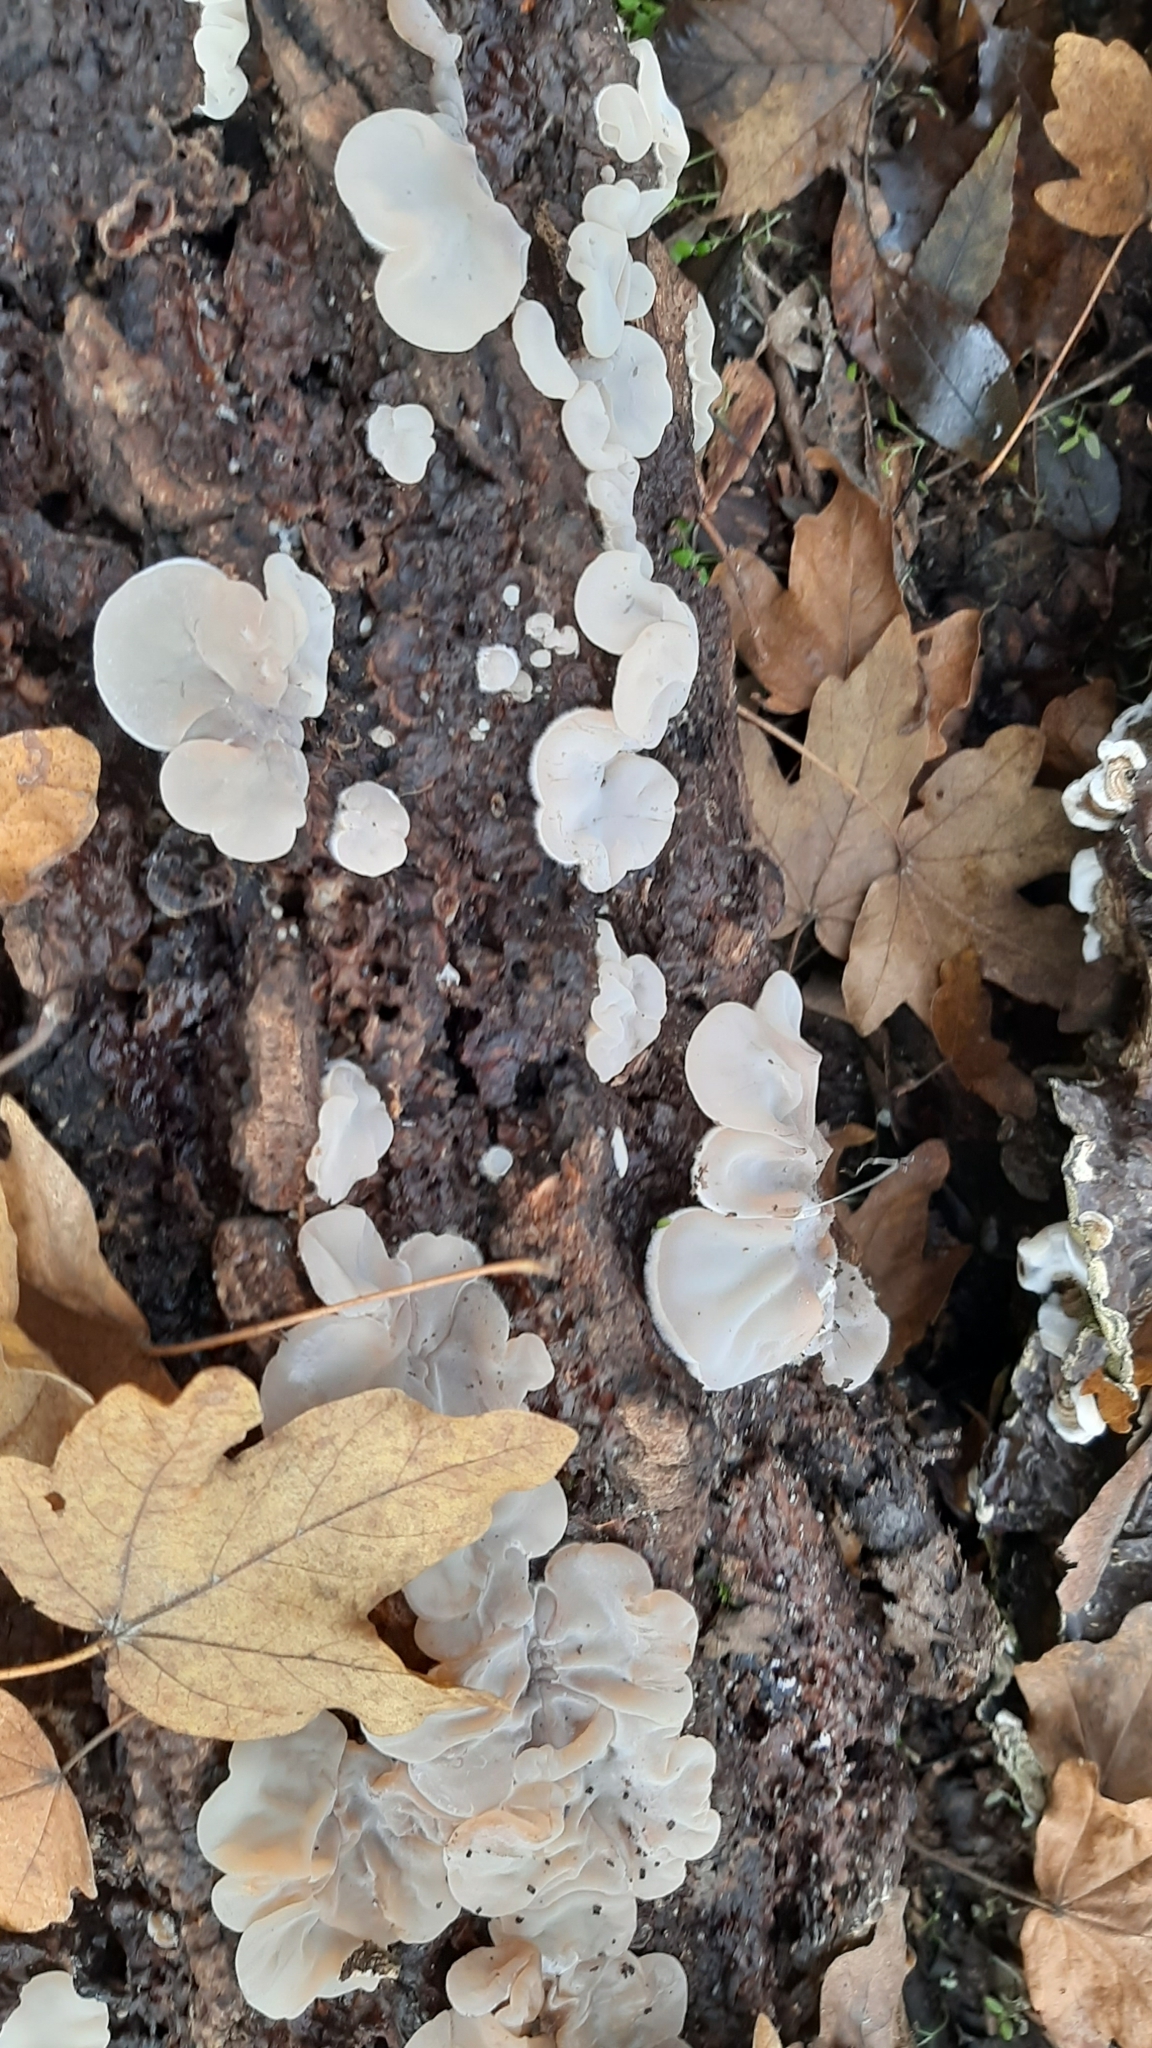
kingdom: Fungi
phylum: Basidiomycota
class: Agaricomycetes
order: Auriculariales
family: Auriculariaceae
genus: Auricularia
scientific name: Auricularia mesenterica
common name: Tripe fungus
